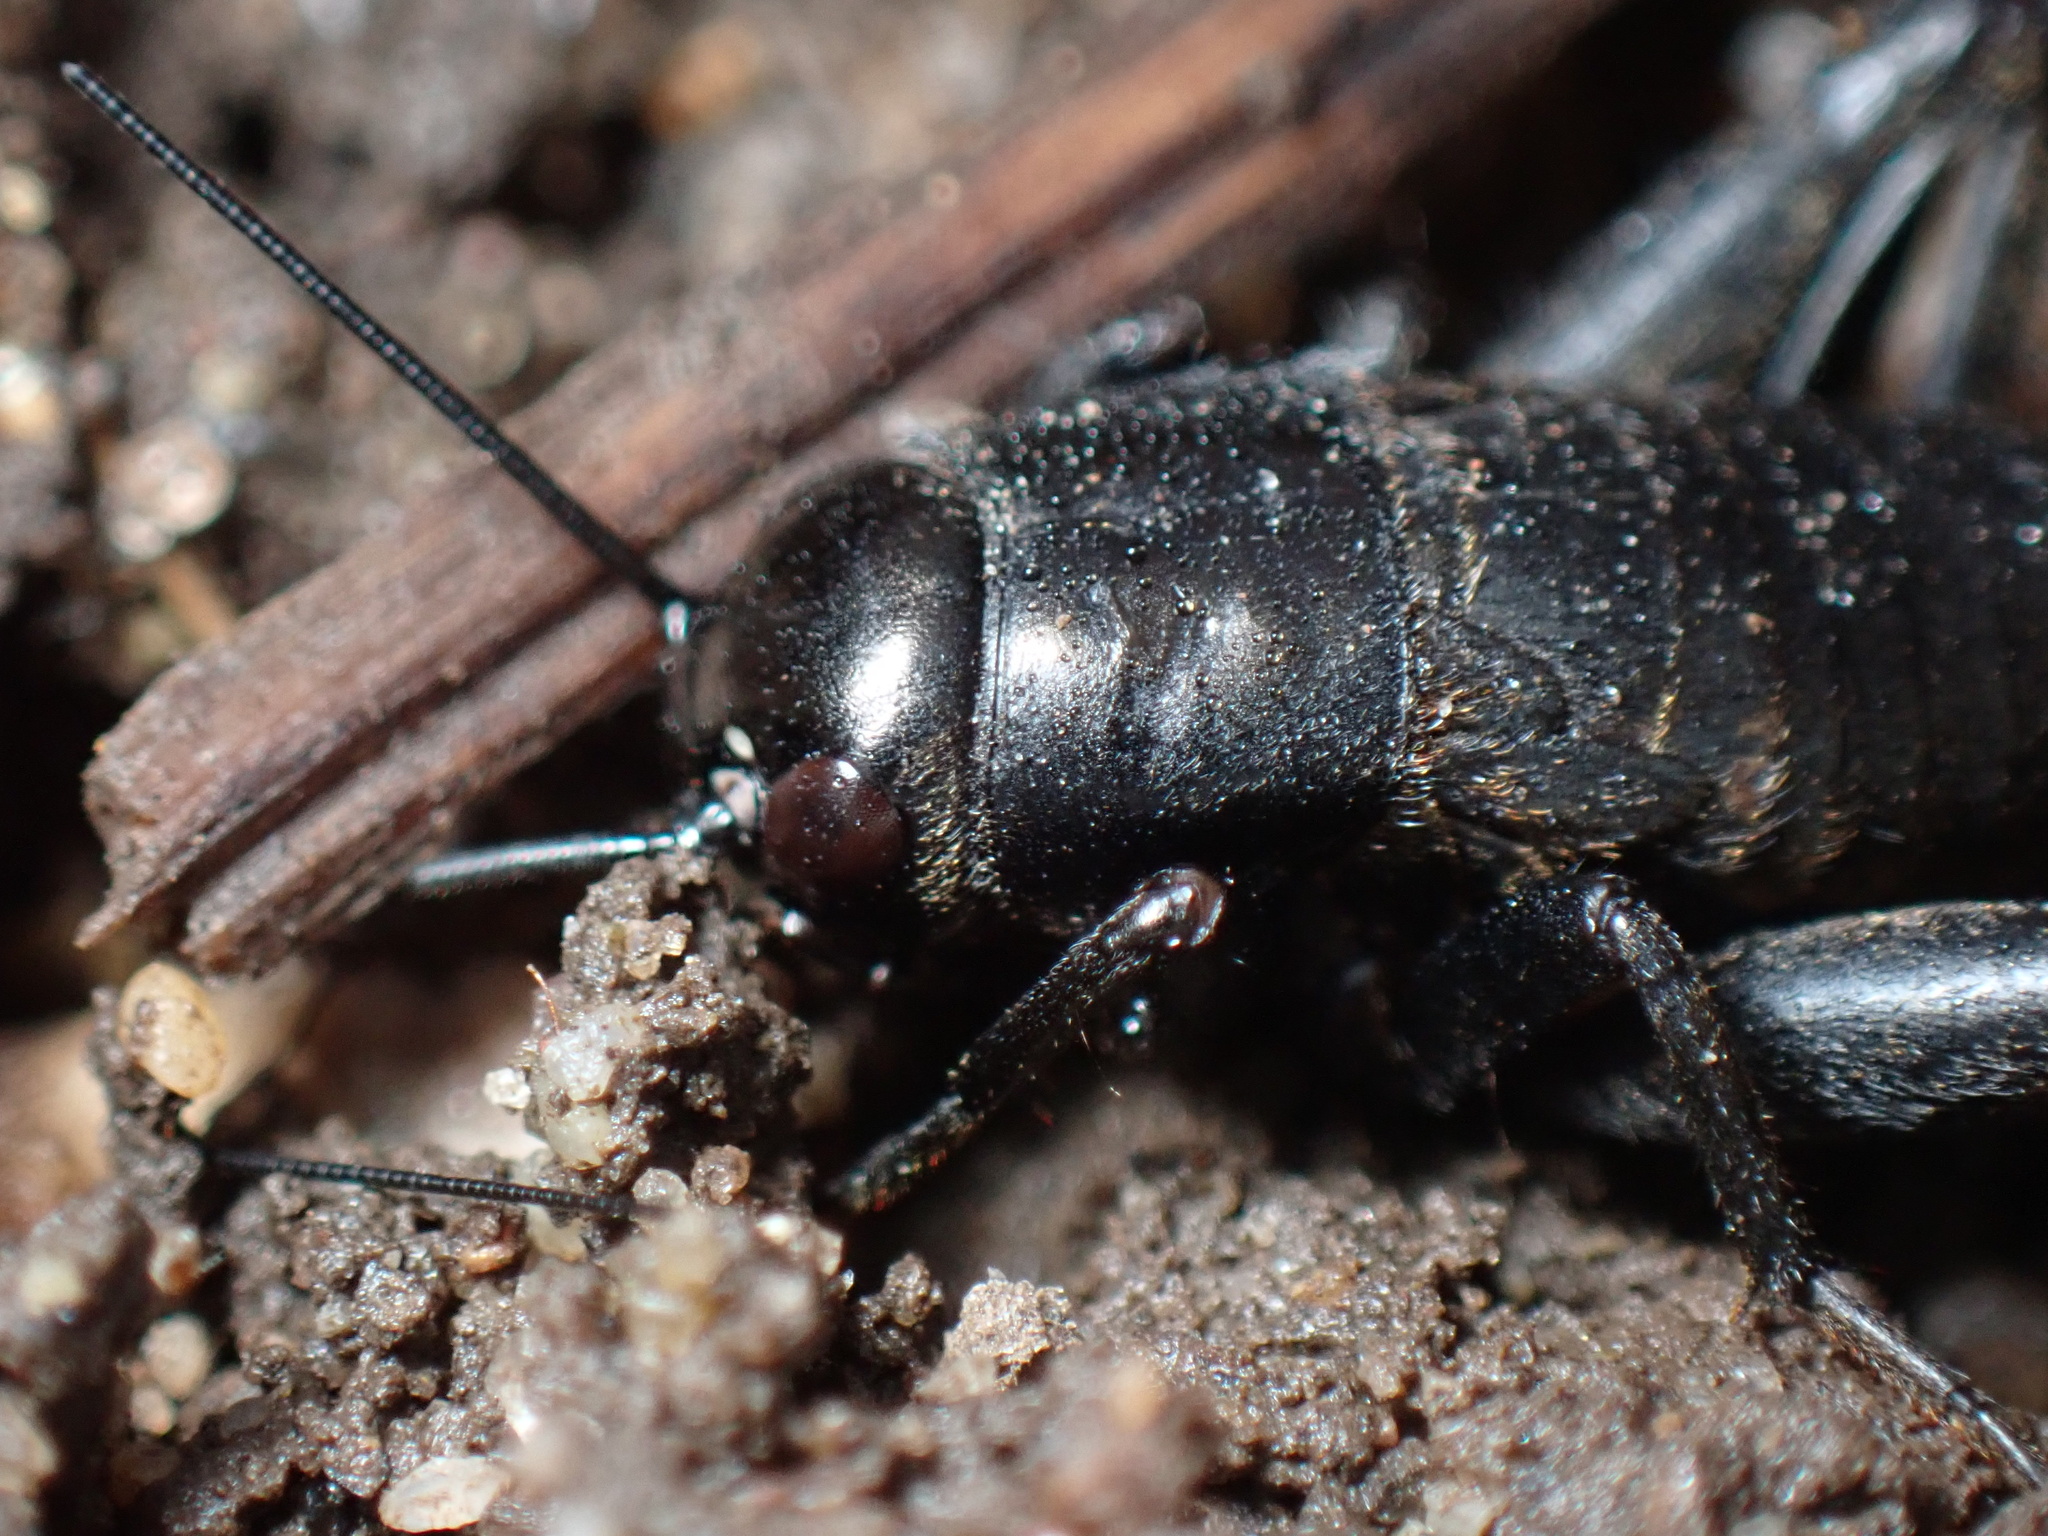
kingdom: Animalia
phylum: Arthropoda
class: Insecta
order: Orthoptera
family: Gryllidae
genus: Gryllus
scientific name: Gryllus veletis
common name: Spring field cricket
